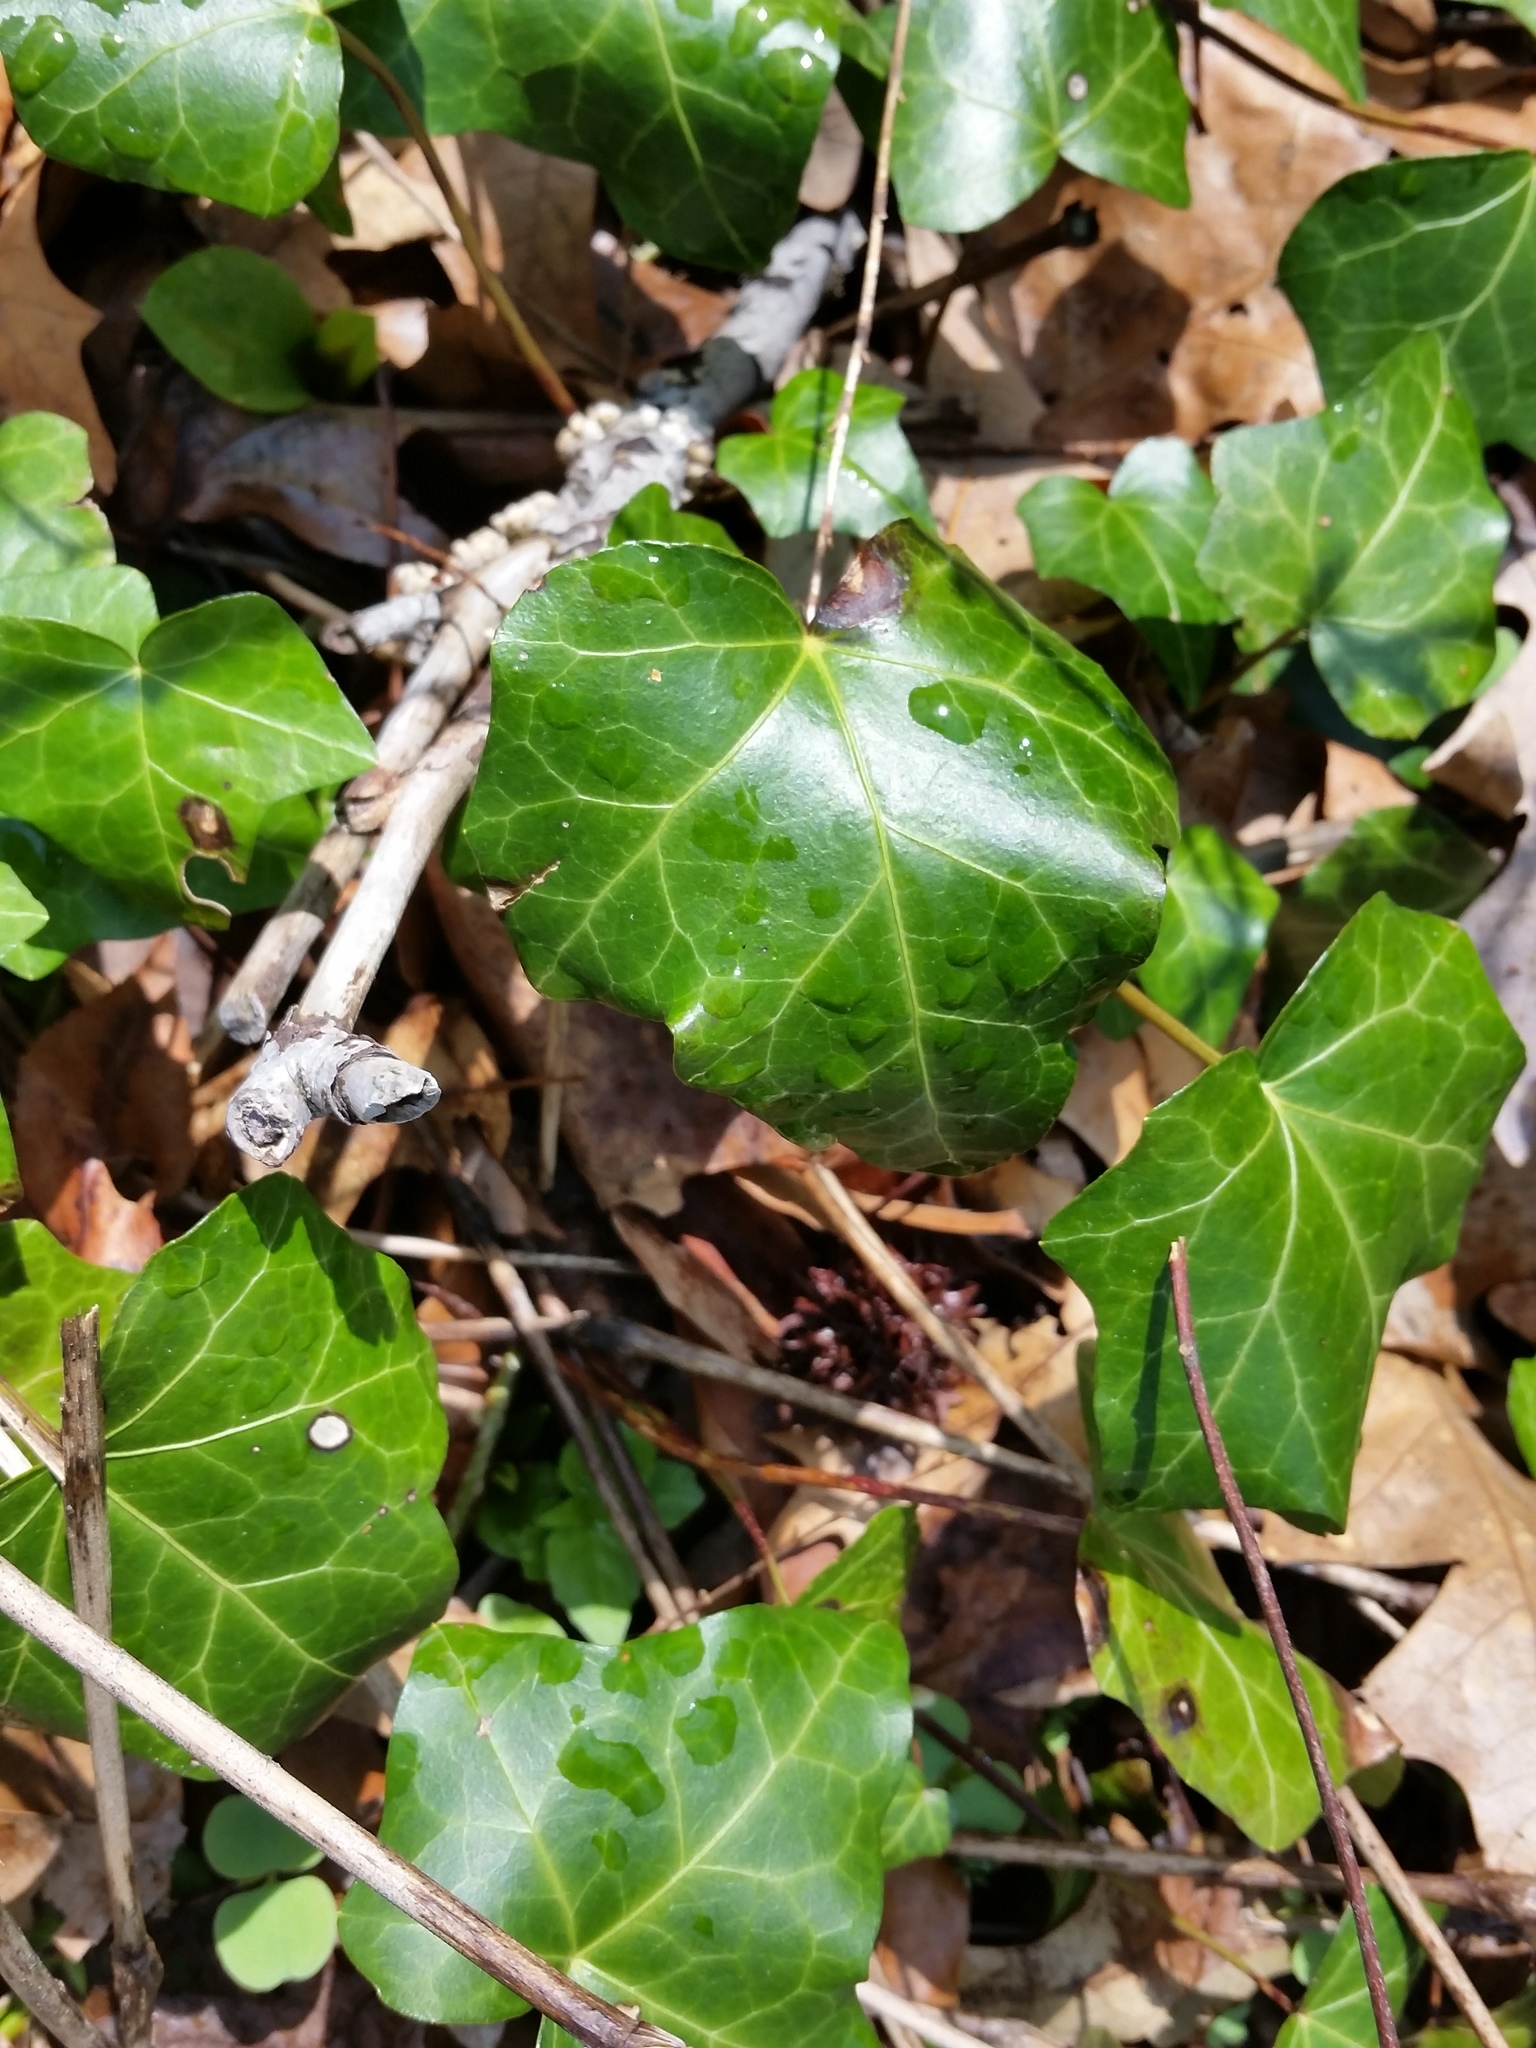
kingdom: Plantae
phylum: Tracheophyta
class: Magnoliopsida
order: Apiales
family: Araliaceae
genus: Hedera
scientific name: Hedera helix
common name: Ivy
